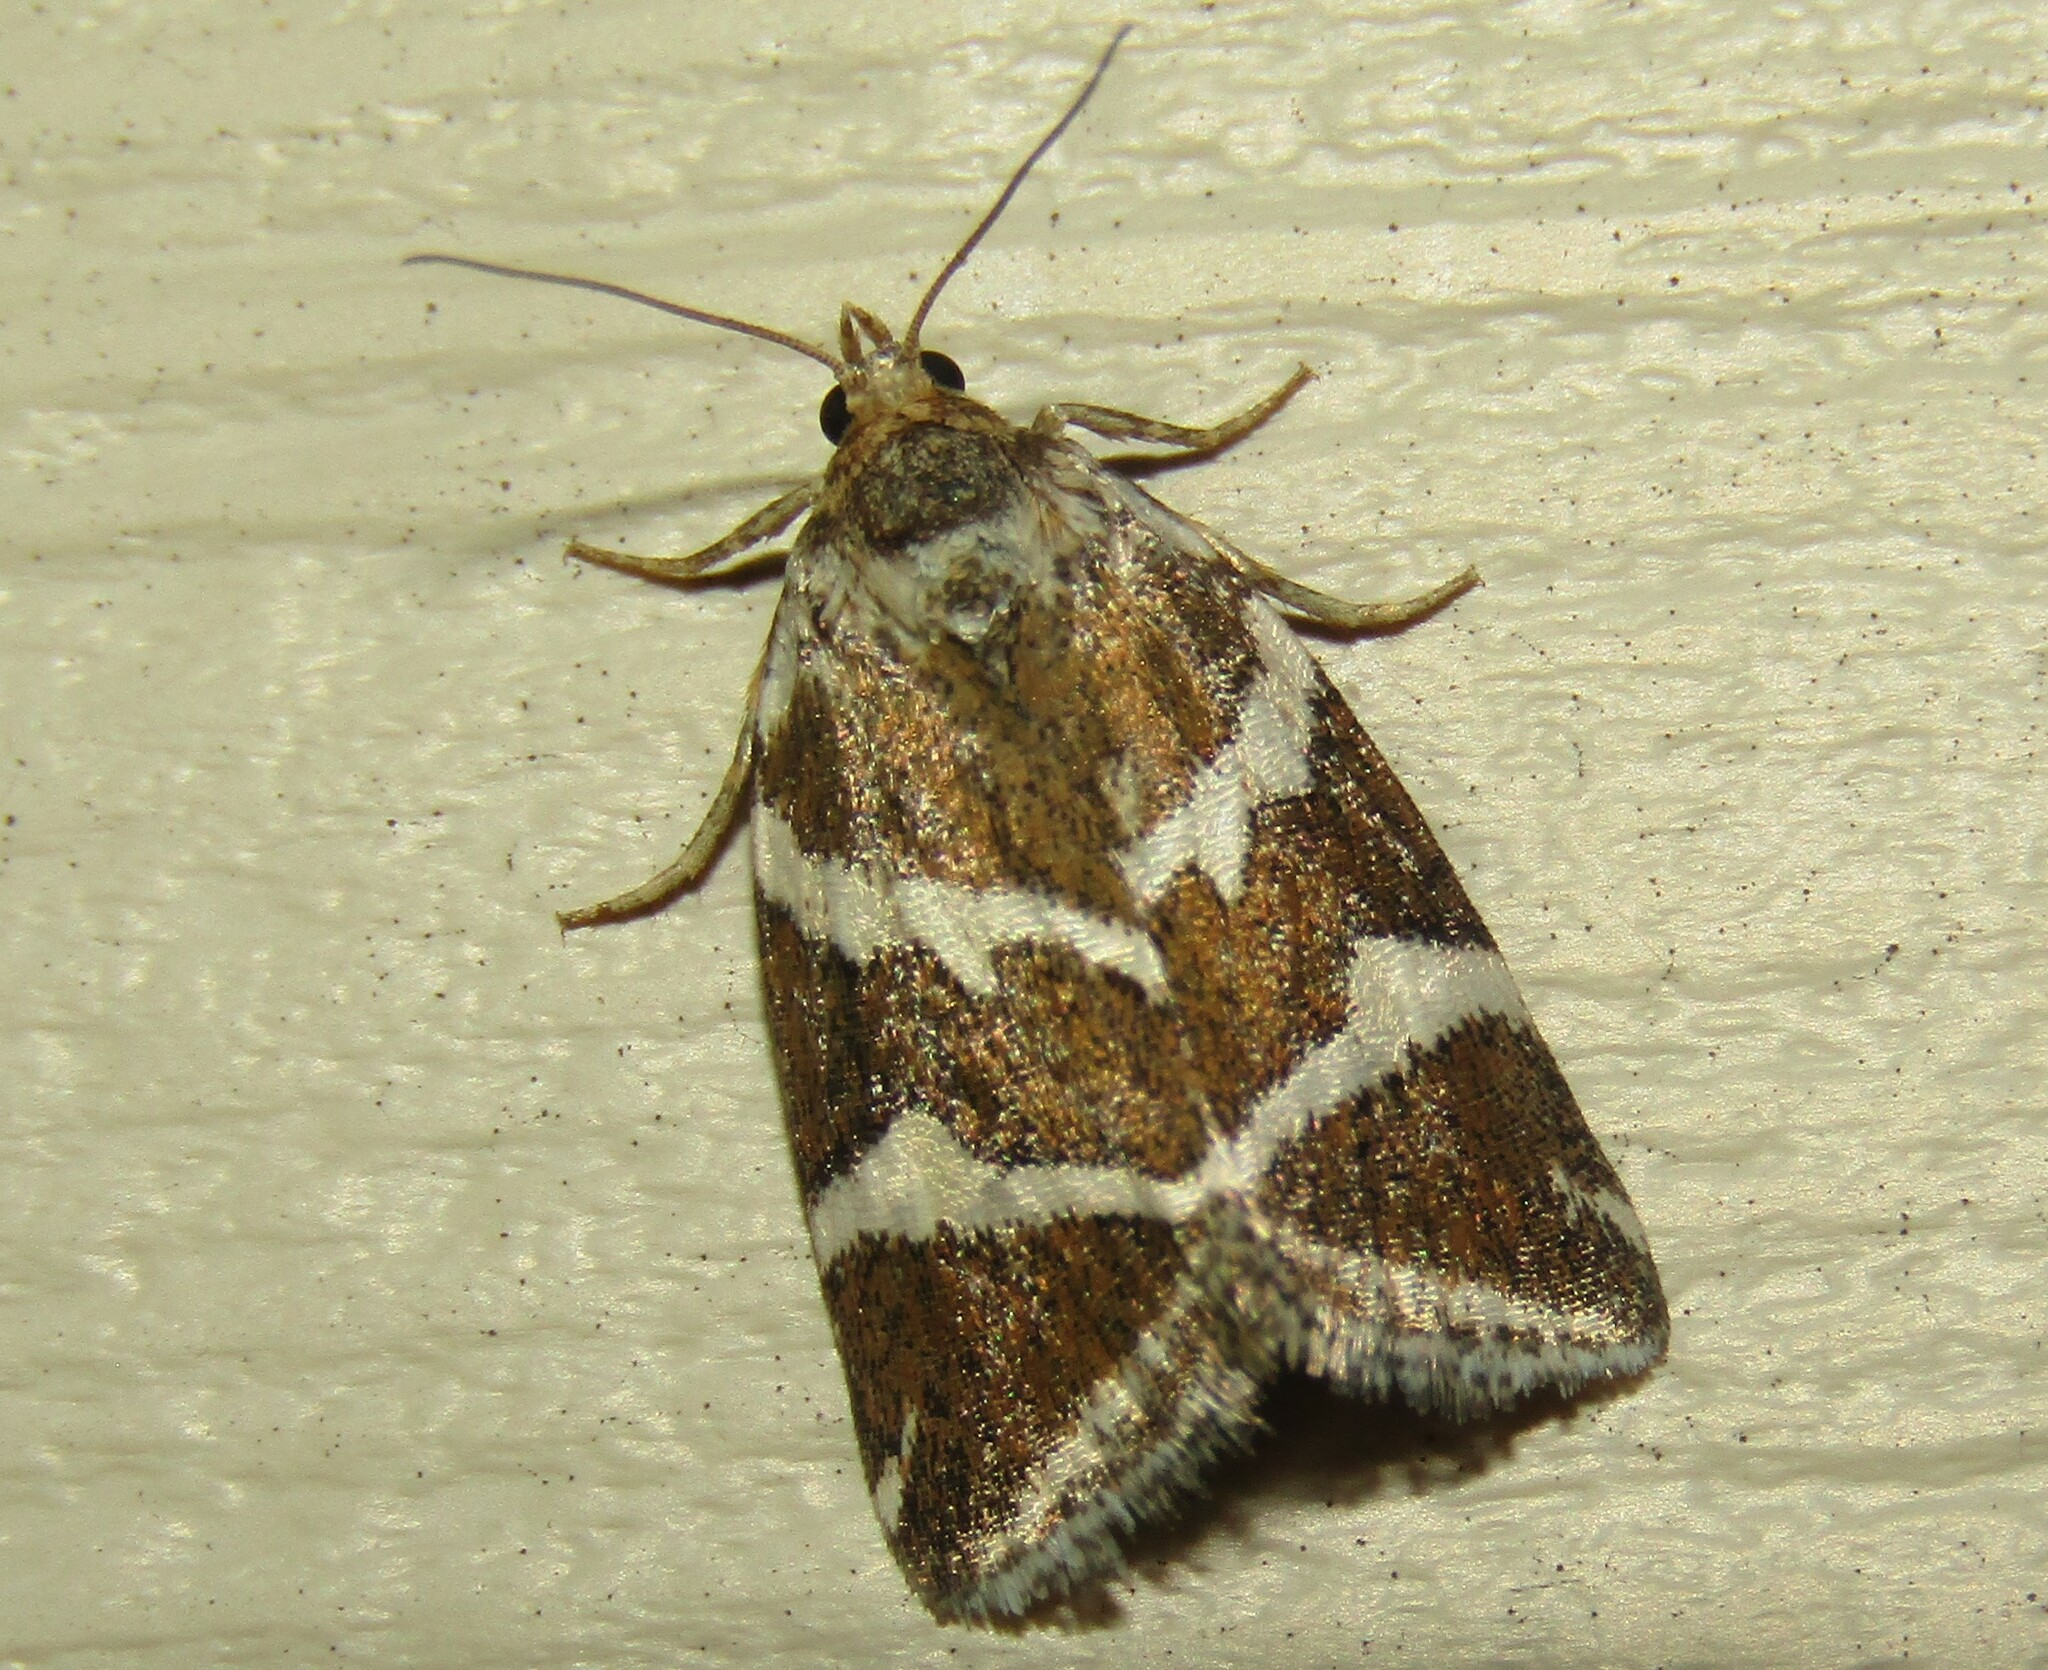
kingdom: Animalia
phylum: Arthropoda
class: Insecta
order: Lepidoptera
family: Noctuidae
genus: Deltote
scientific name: Deltote bankiana
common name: Silver barred
